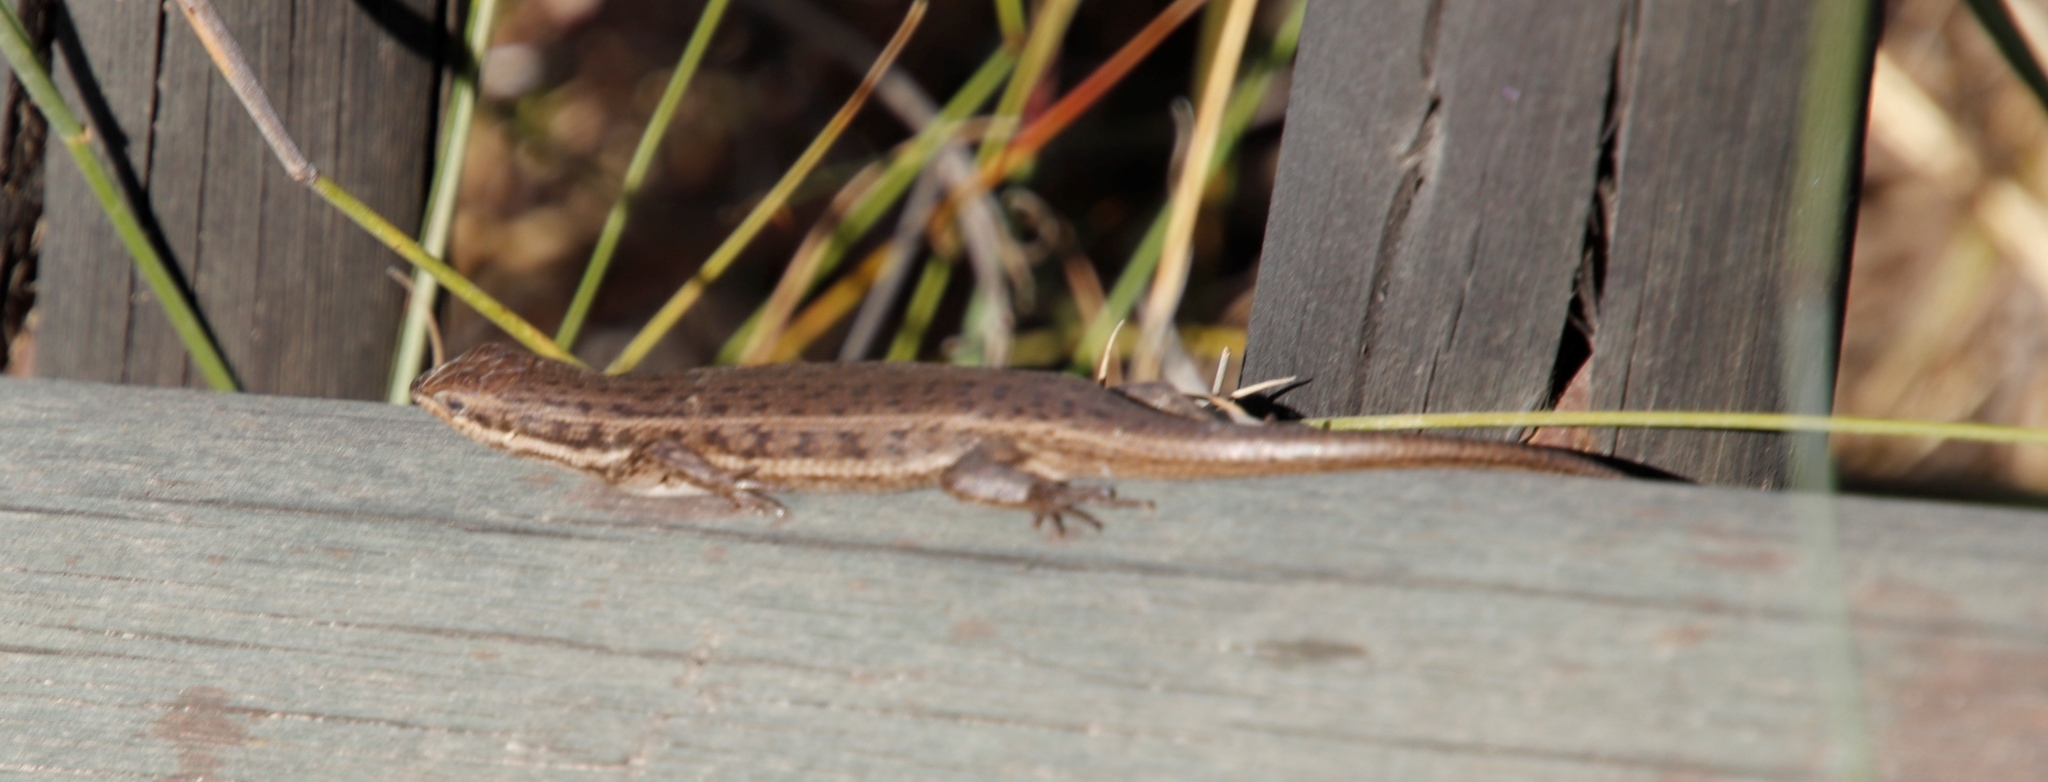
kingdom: Animalia
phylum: Chordata
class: Squamata
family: Scincidae
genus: Trachylepis
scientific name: Trachylepis variegata
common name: Variegated skink
